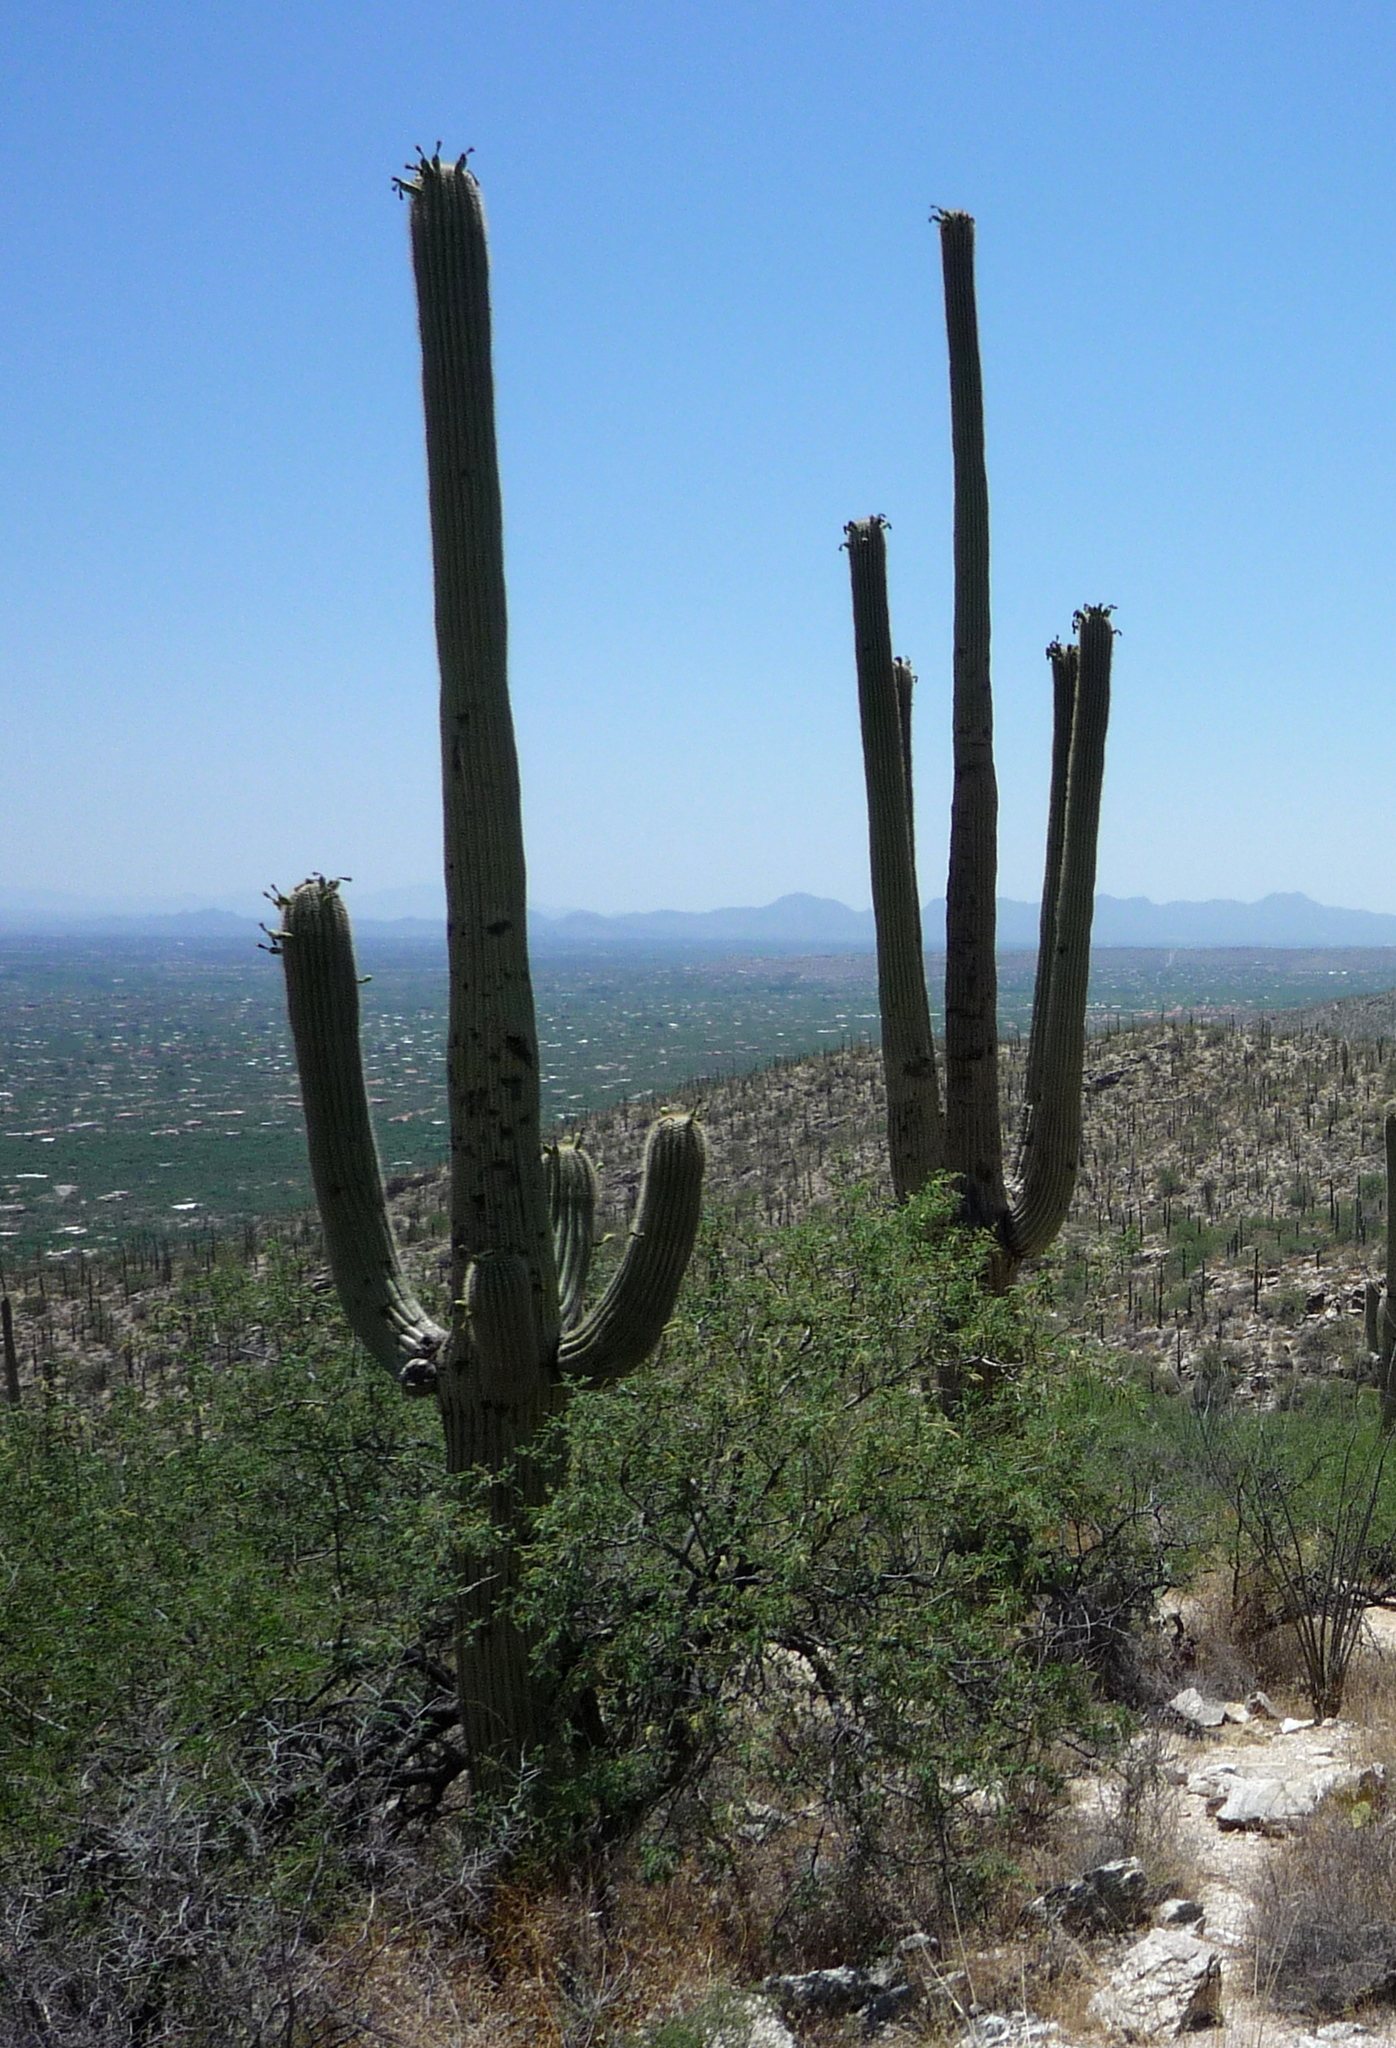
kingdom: Plantae
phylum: Tracheophyta
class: Magnoliopsida
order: Caryophyllales
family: Cactaceae
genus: Carnegiea
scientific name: Carnegiea gigantea
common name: Saguaro
